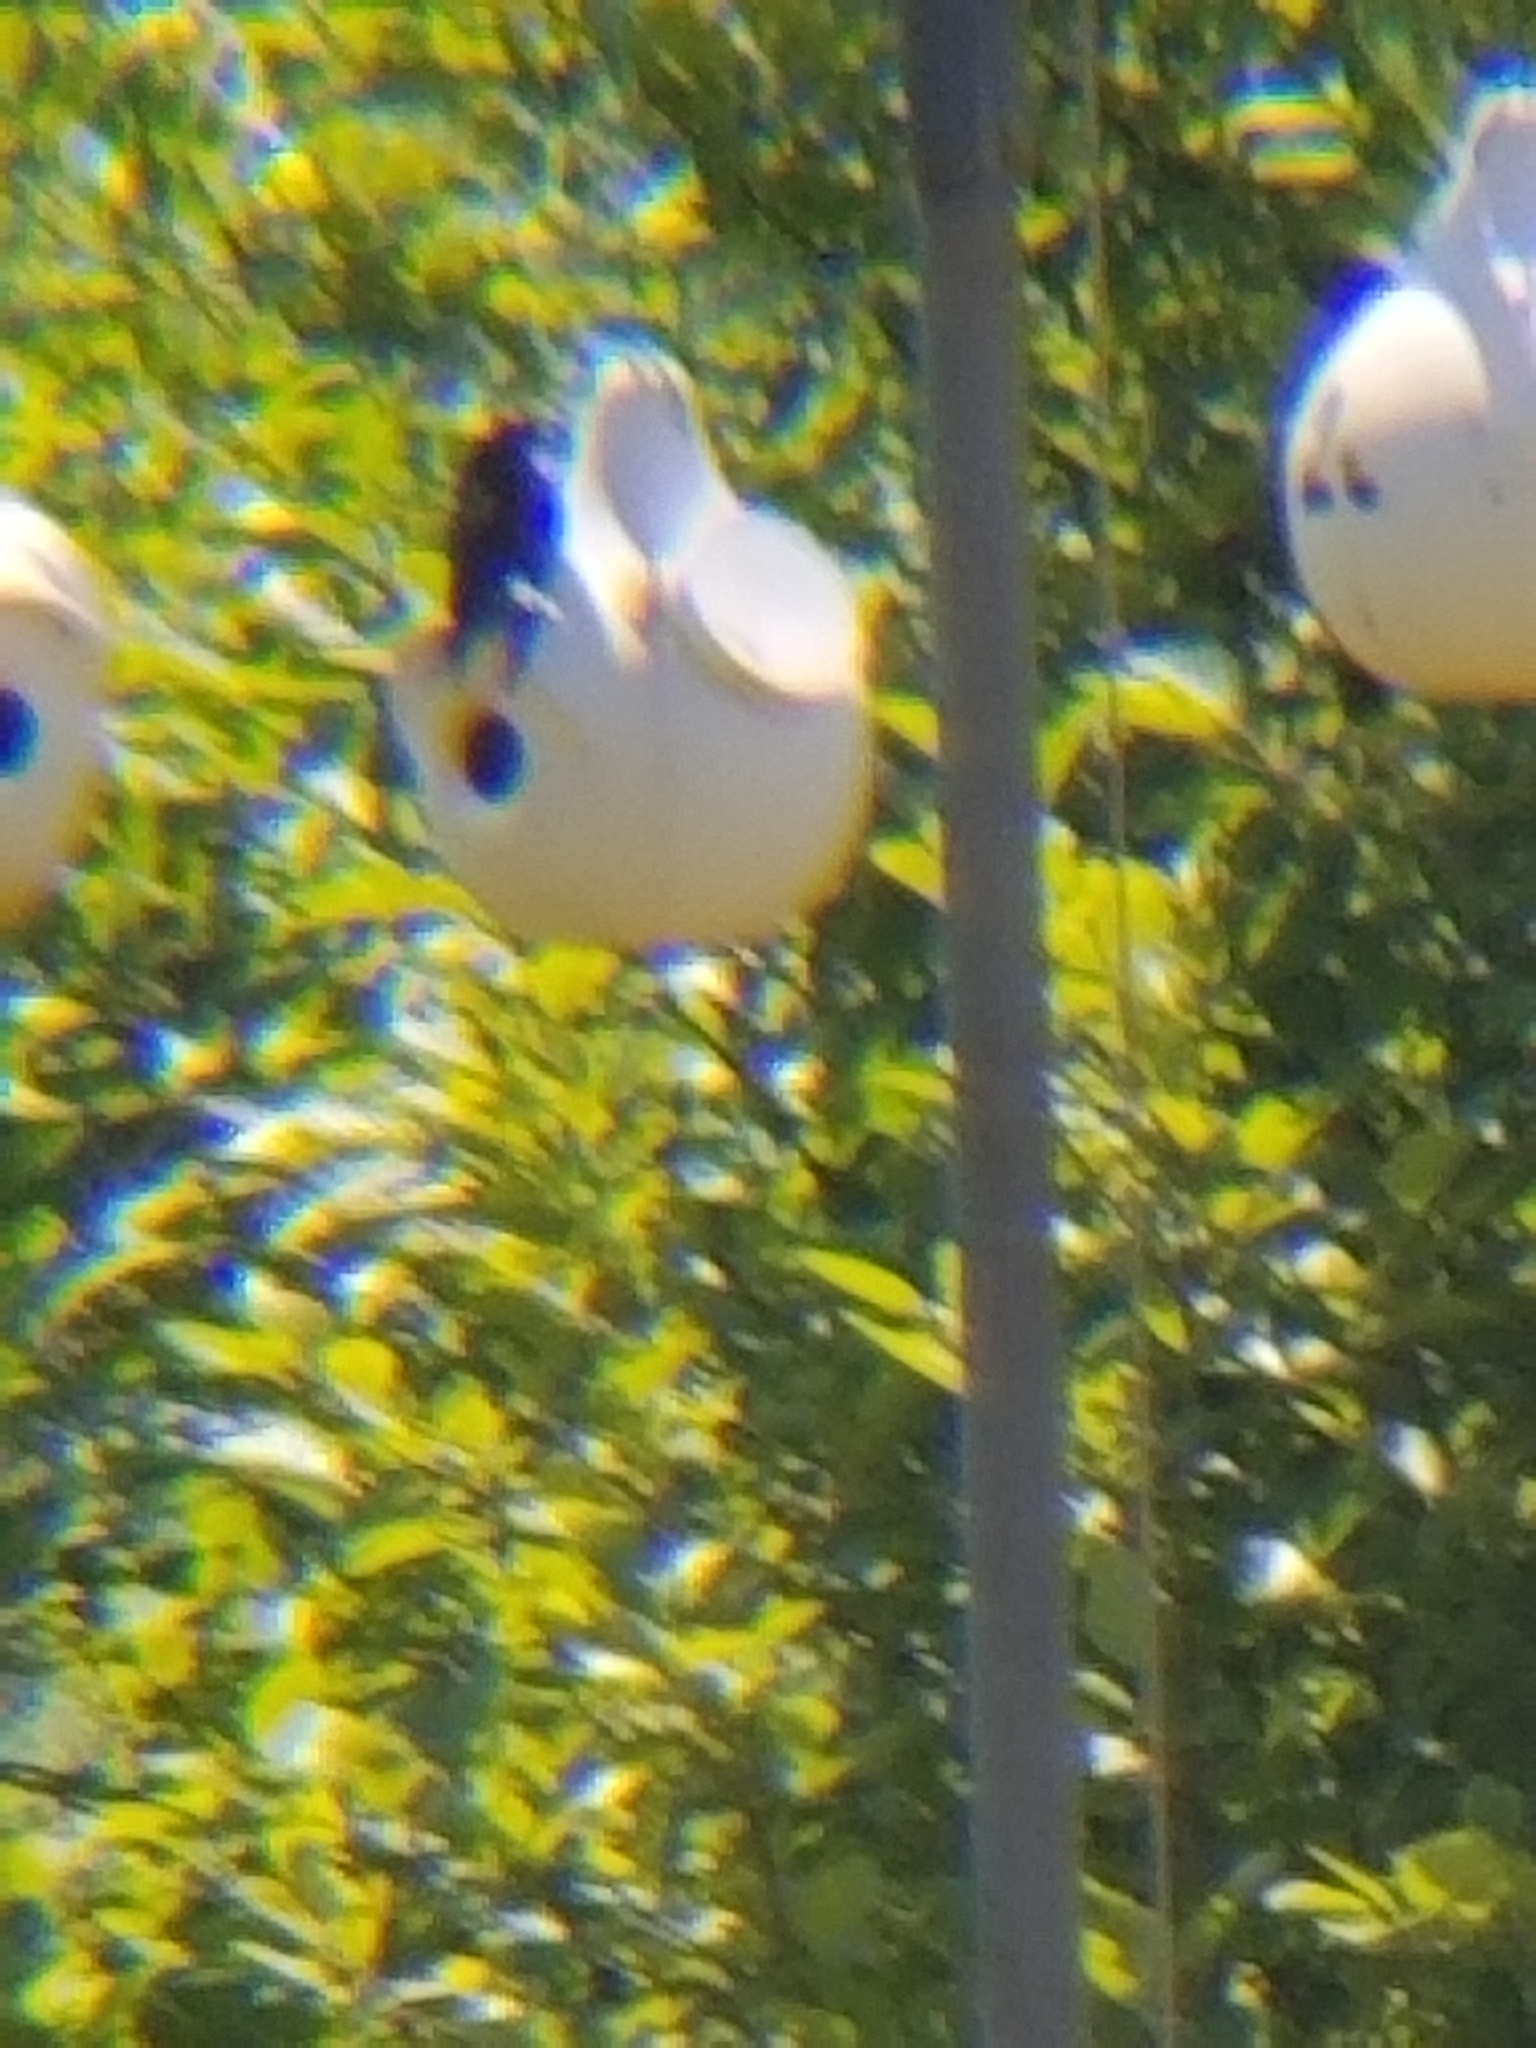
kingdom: Animalia
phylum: Chordata
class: Aves
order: Passeriformes
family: Hirundinidae
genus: Progne
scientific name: Progne subis
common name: Purple martin
